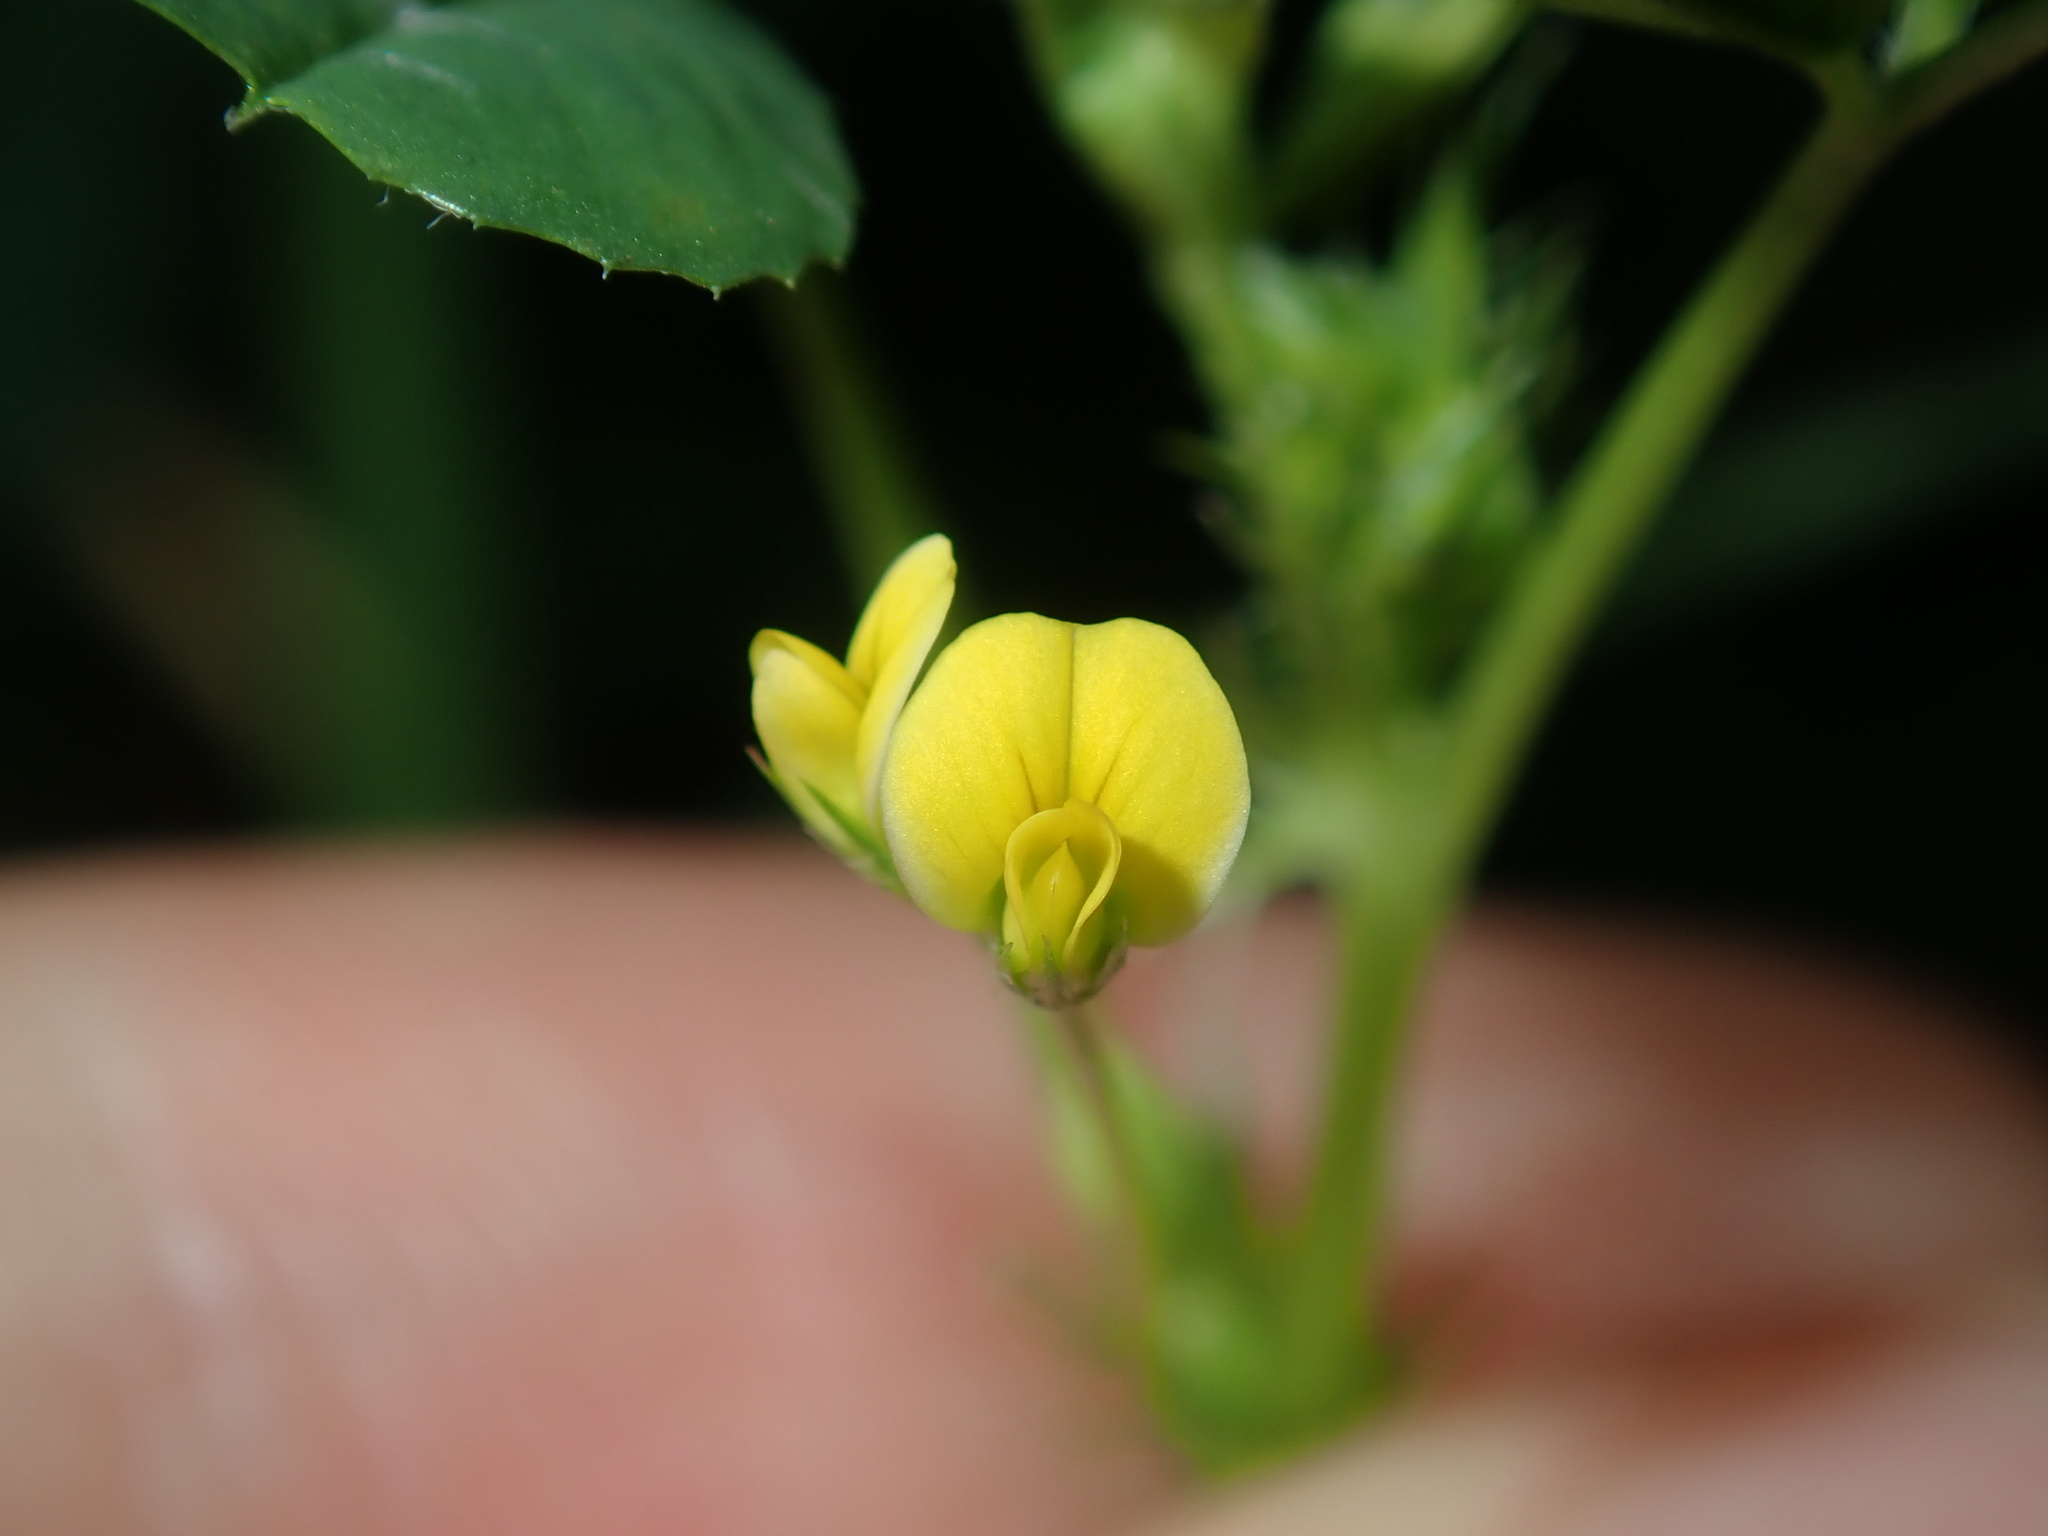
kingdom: Plantae
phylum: Tracheophyta
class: Magnoliopsida
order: Fabales
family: Fabaceae
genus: Medicago
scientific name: Medicago polymorpha
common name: Burclover
